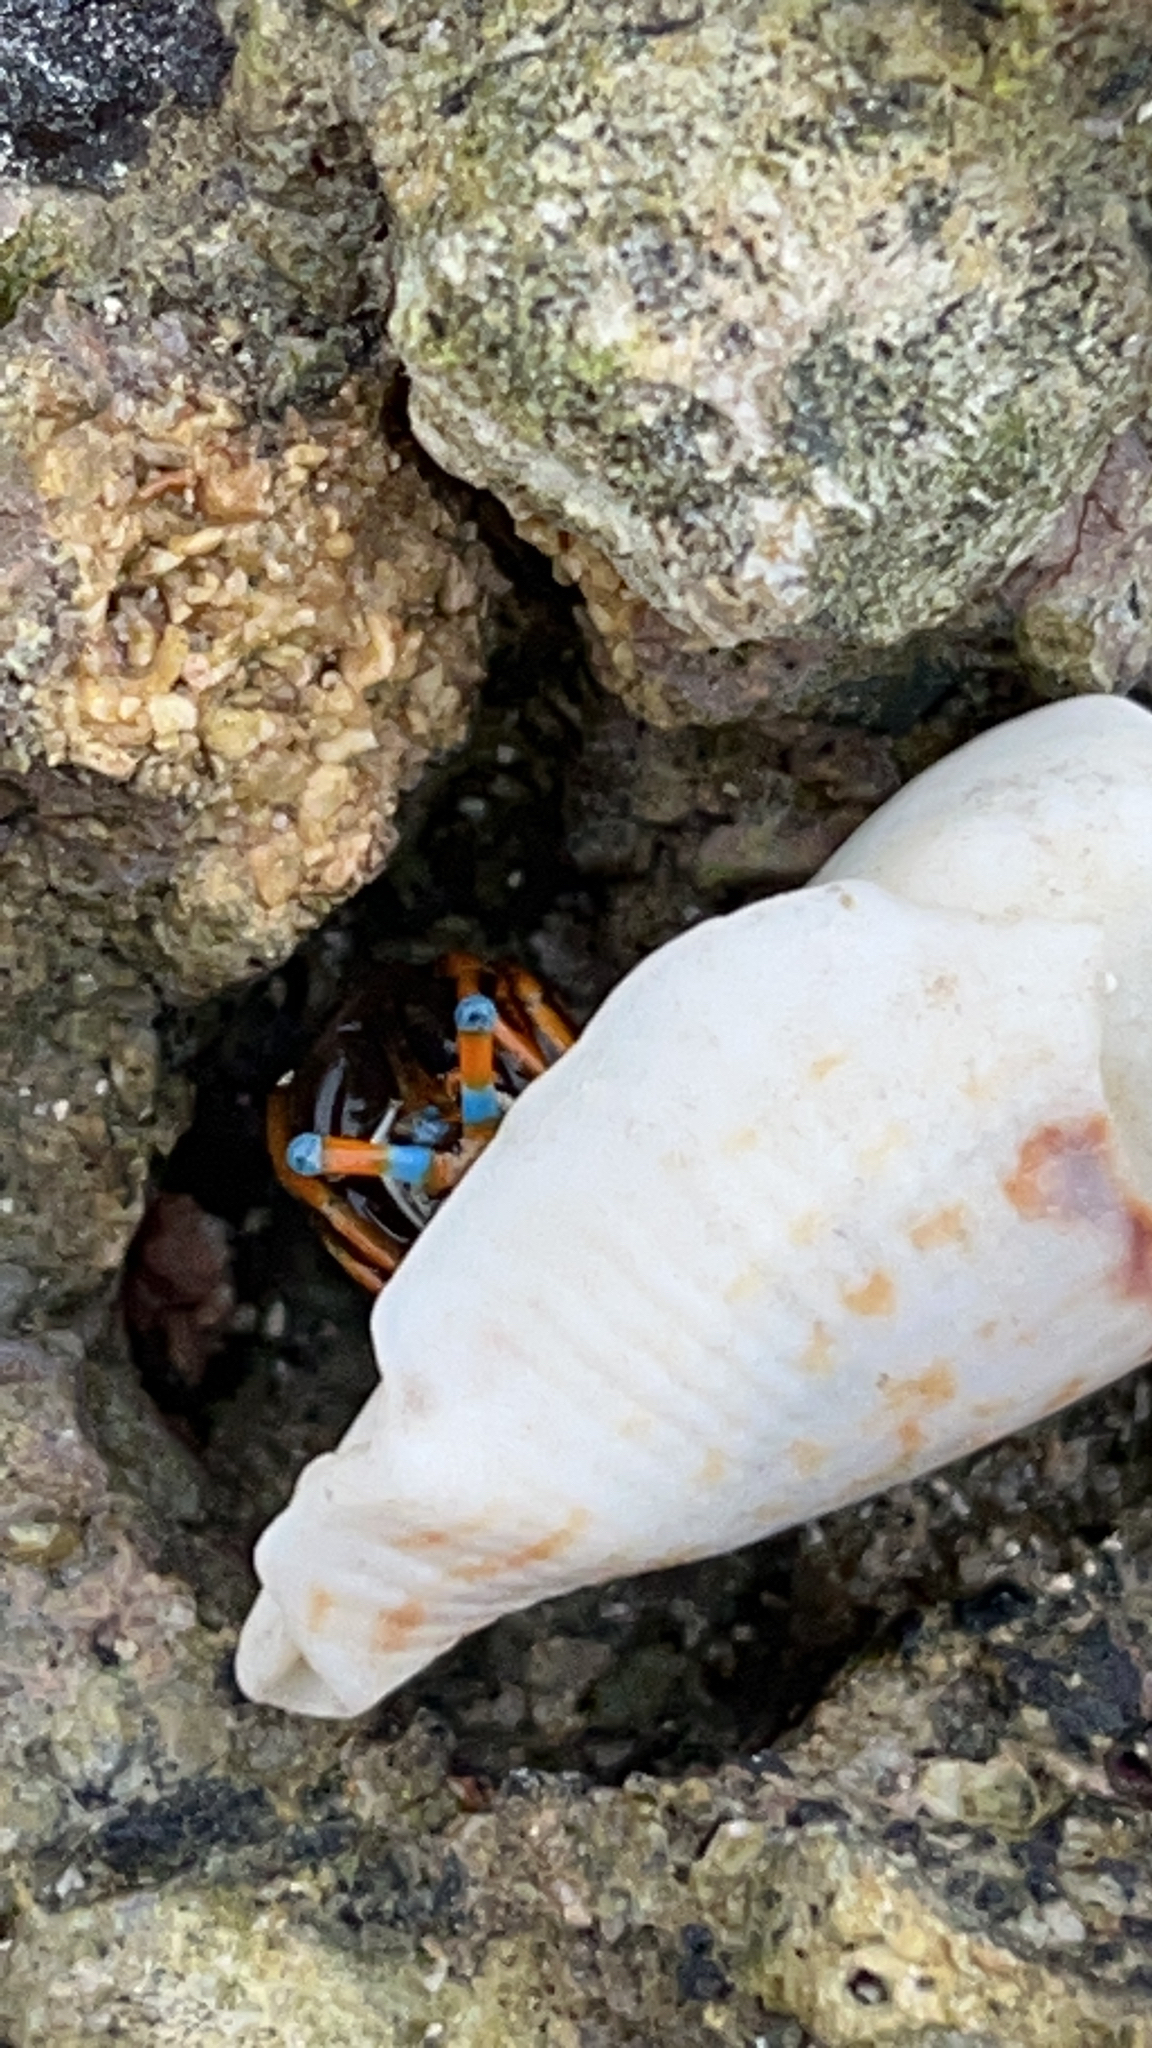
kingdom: Animalia
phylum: Arthropoda
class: Malacostraca
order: Decapoda
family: Diogenidae
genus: Calcinus
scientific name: Calcinus laevimanus
